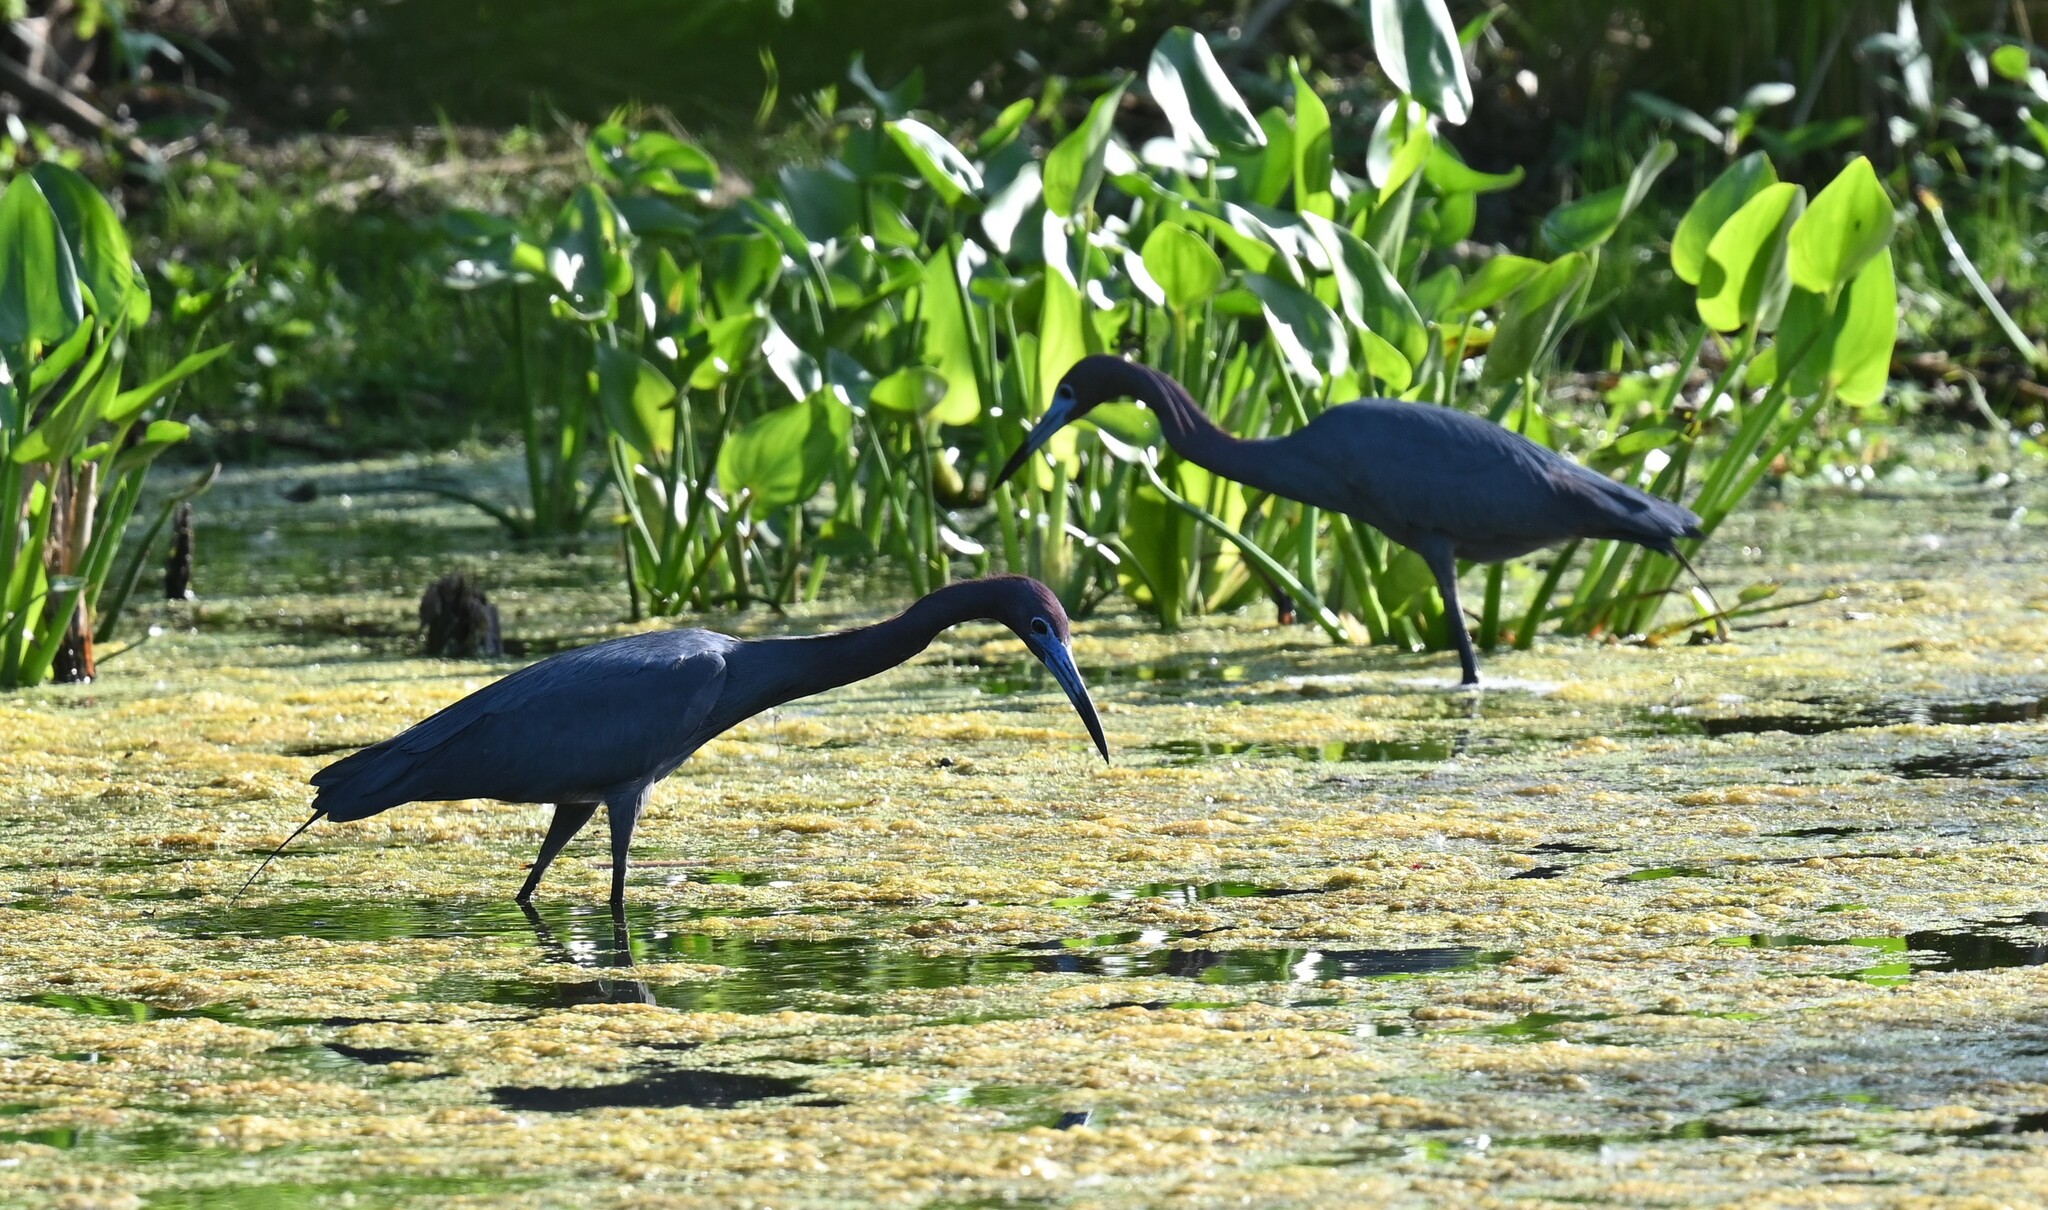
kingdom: Animalia
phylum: Chordata
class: Aves
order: Pelecaniformes
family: Ardeidae
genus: Egretta
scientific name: Egretta caerulea
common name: Little blue heron
